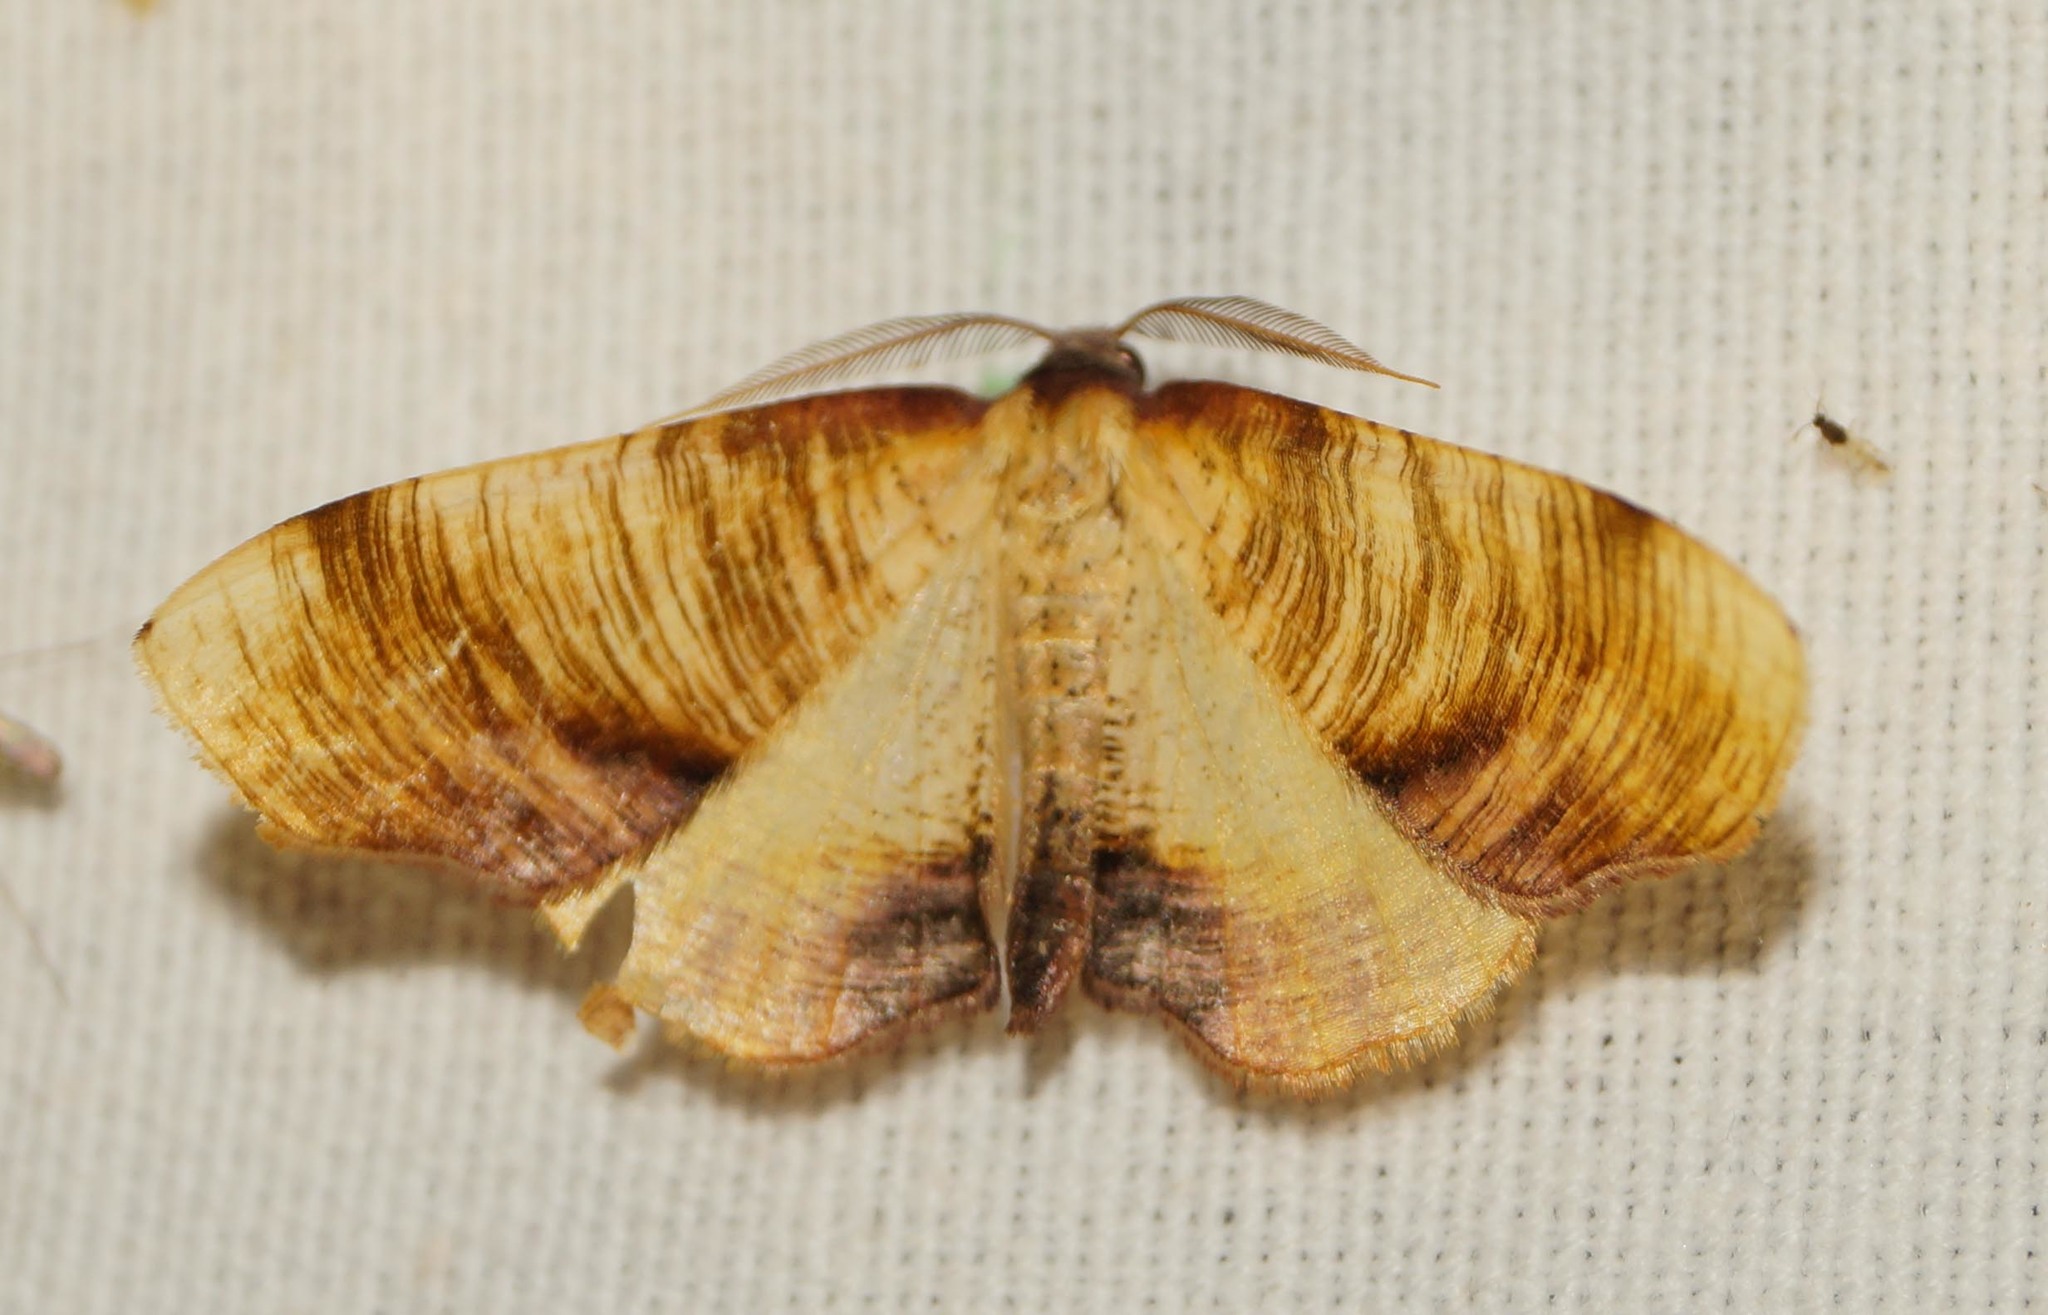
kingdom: Animalia
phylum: Arthropoda
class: Insecta
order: Lepidoptera
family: Geometridae
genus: Plagodis
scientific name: Plagodis dolabraria
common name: Scorched wing
